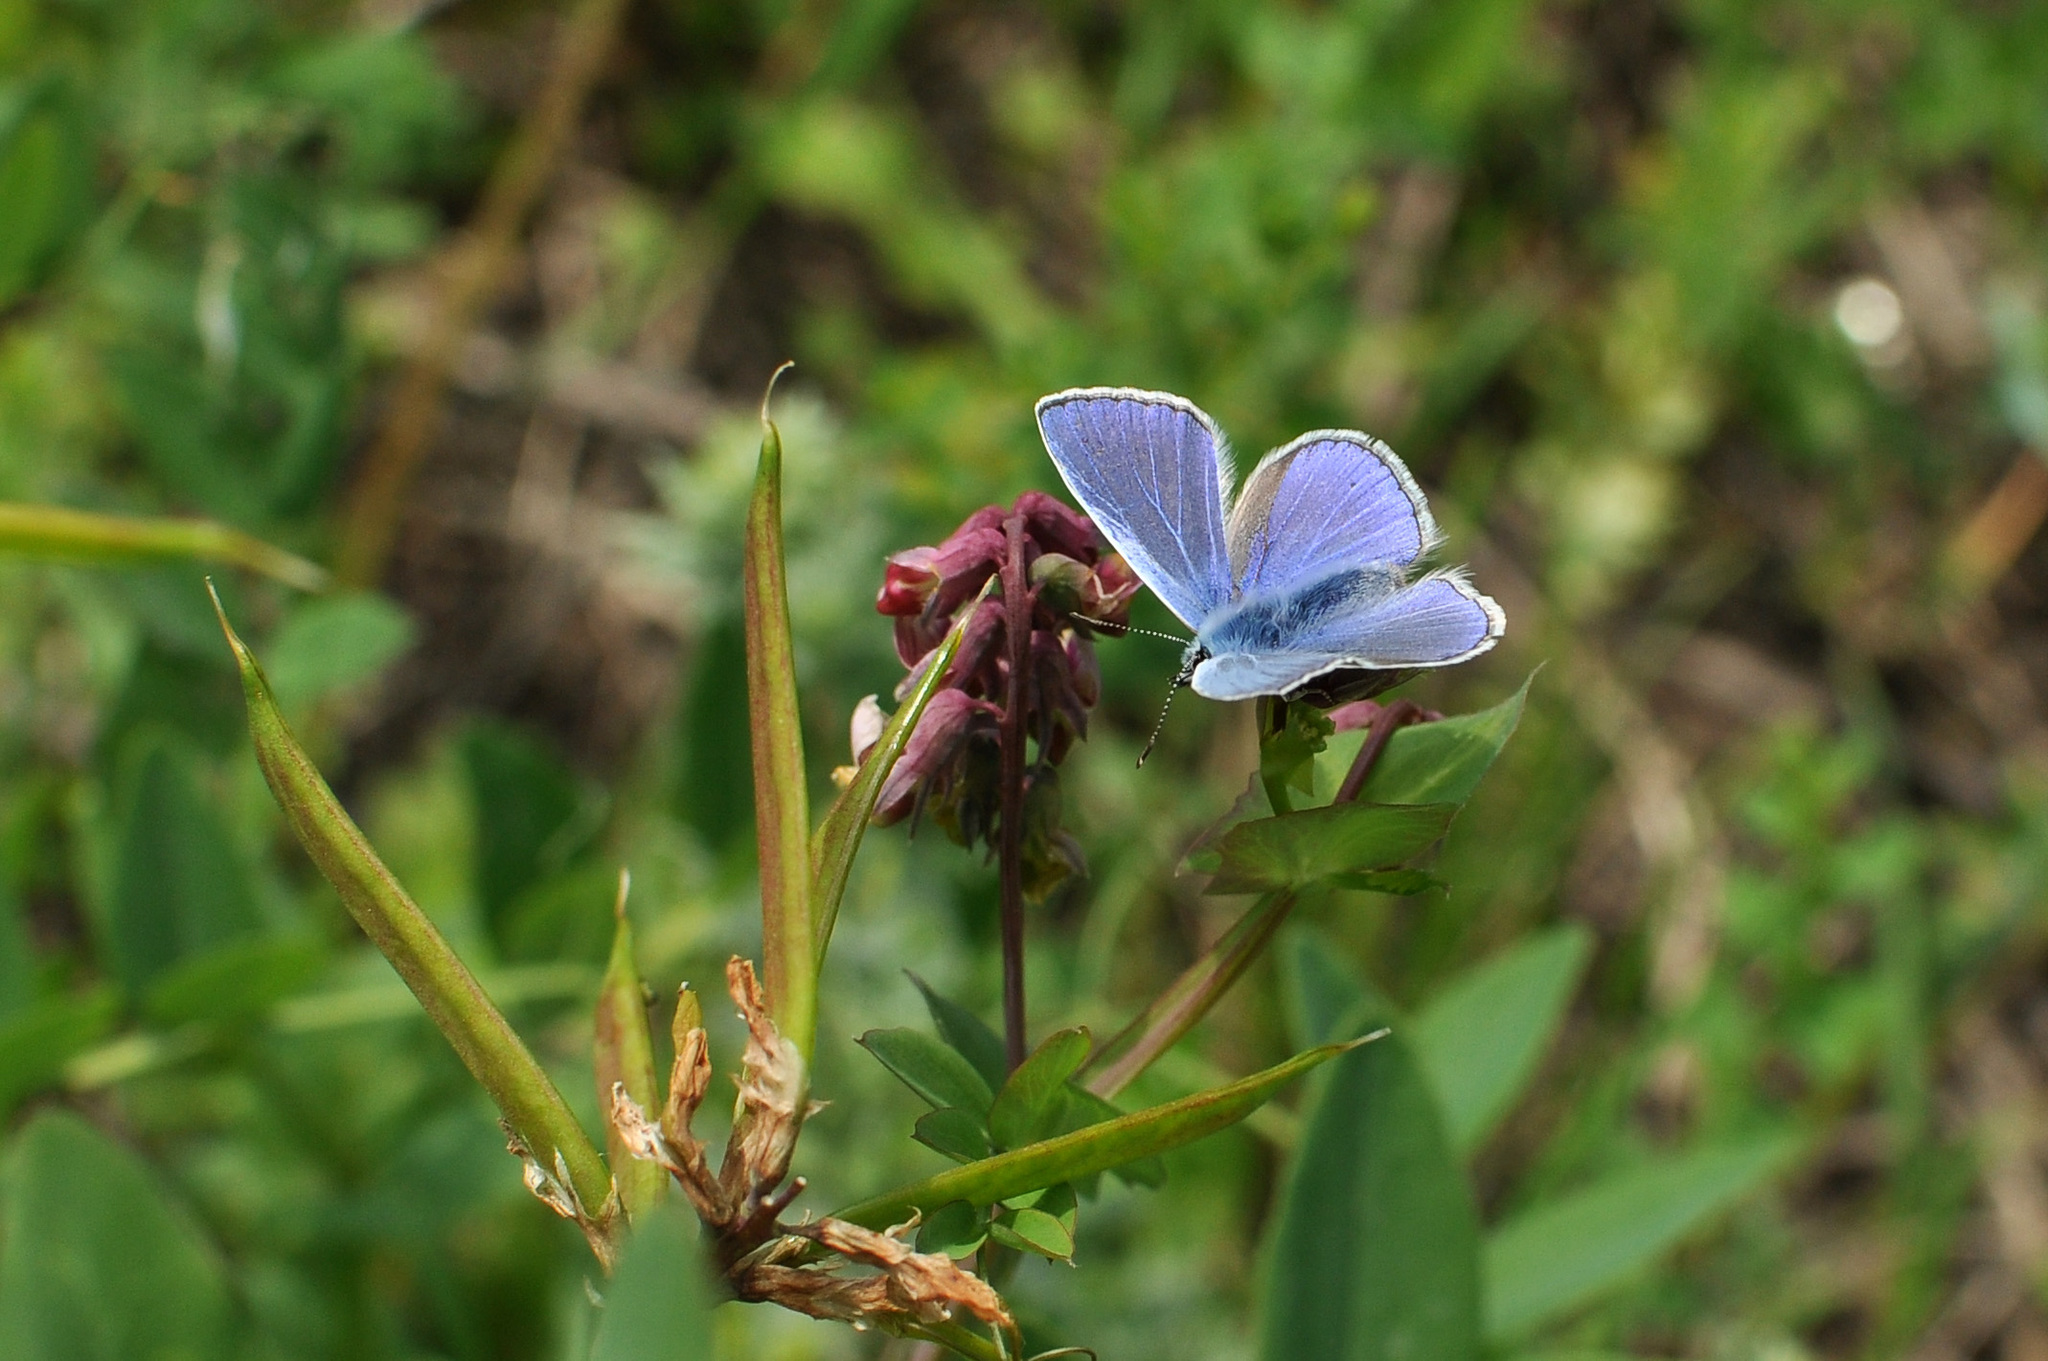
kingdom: Animalia
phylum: Arthropoda
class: Insecta
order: Lepidoptera
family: Lycaenidae
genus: Polyommatus
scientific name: Polyommatus icarus
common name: Common blue
